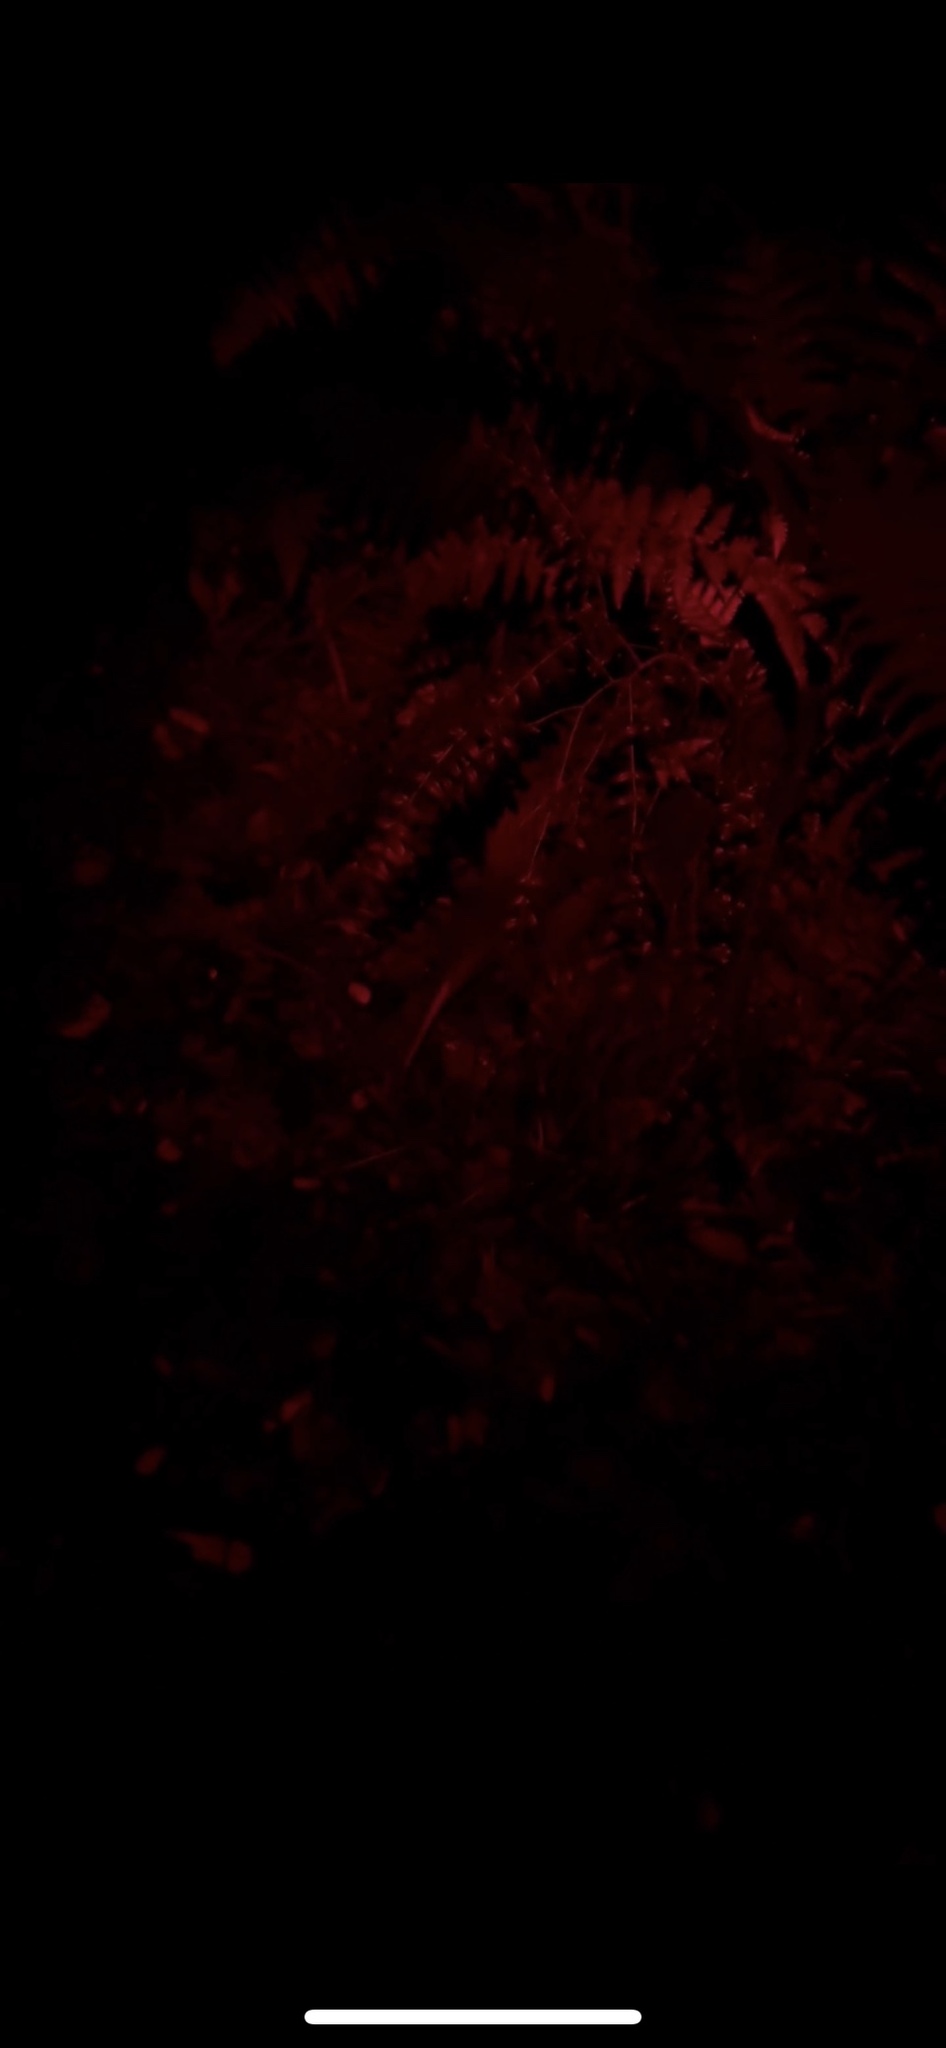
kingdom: Animalia
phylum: Chordata
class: Aves
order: Apterygiformes
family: Apterygidae
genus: Apteryx
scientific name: Apteryx australis
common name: Southern brown kiwi
